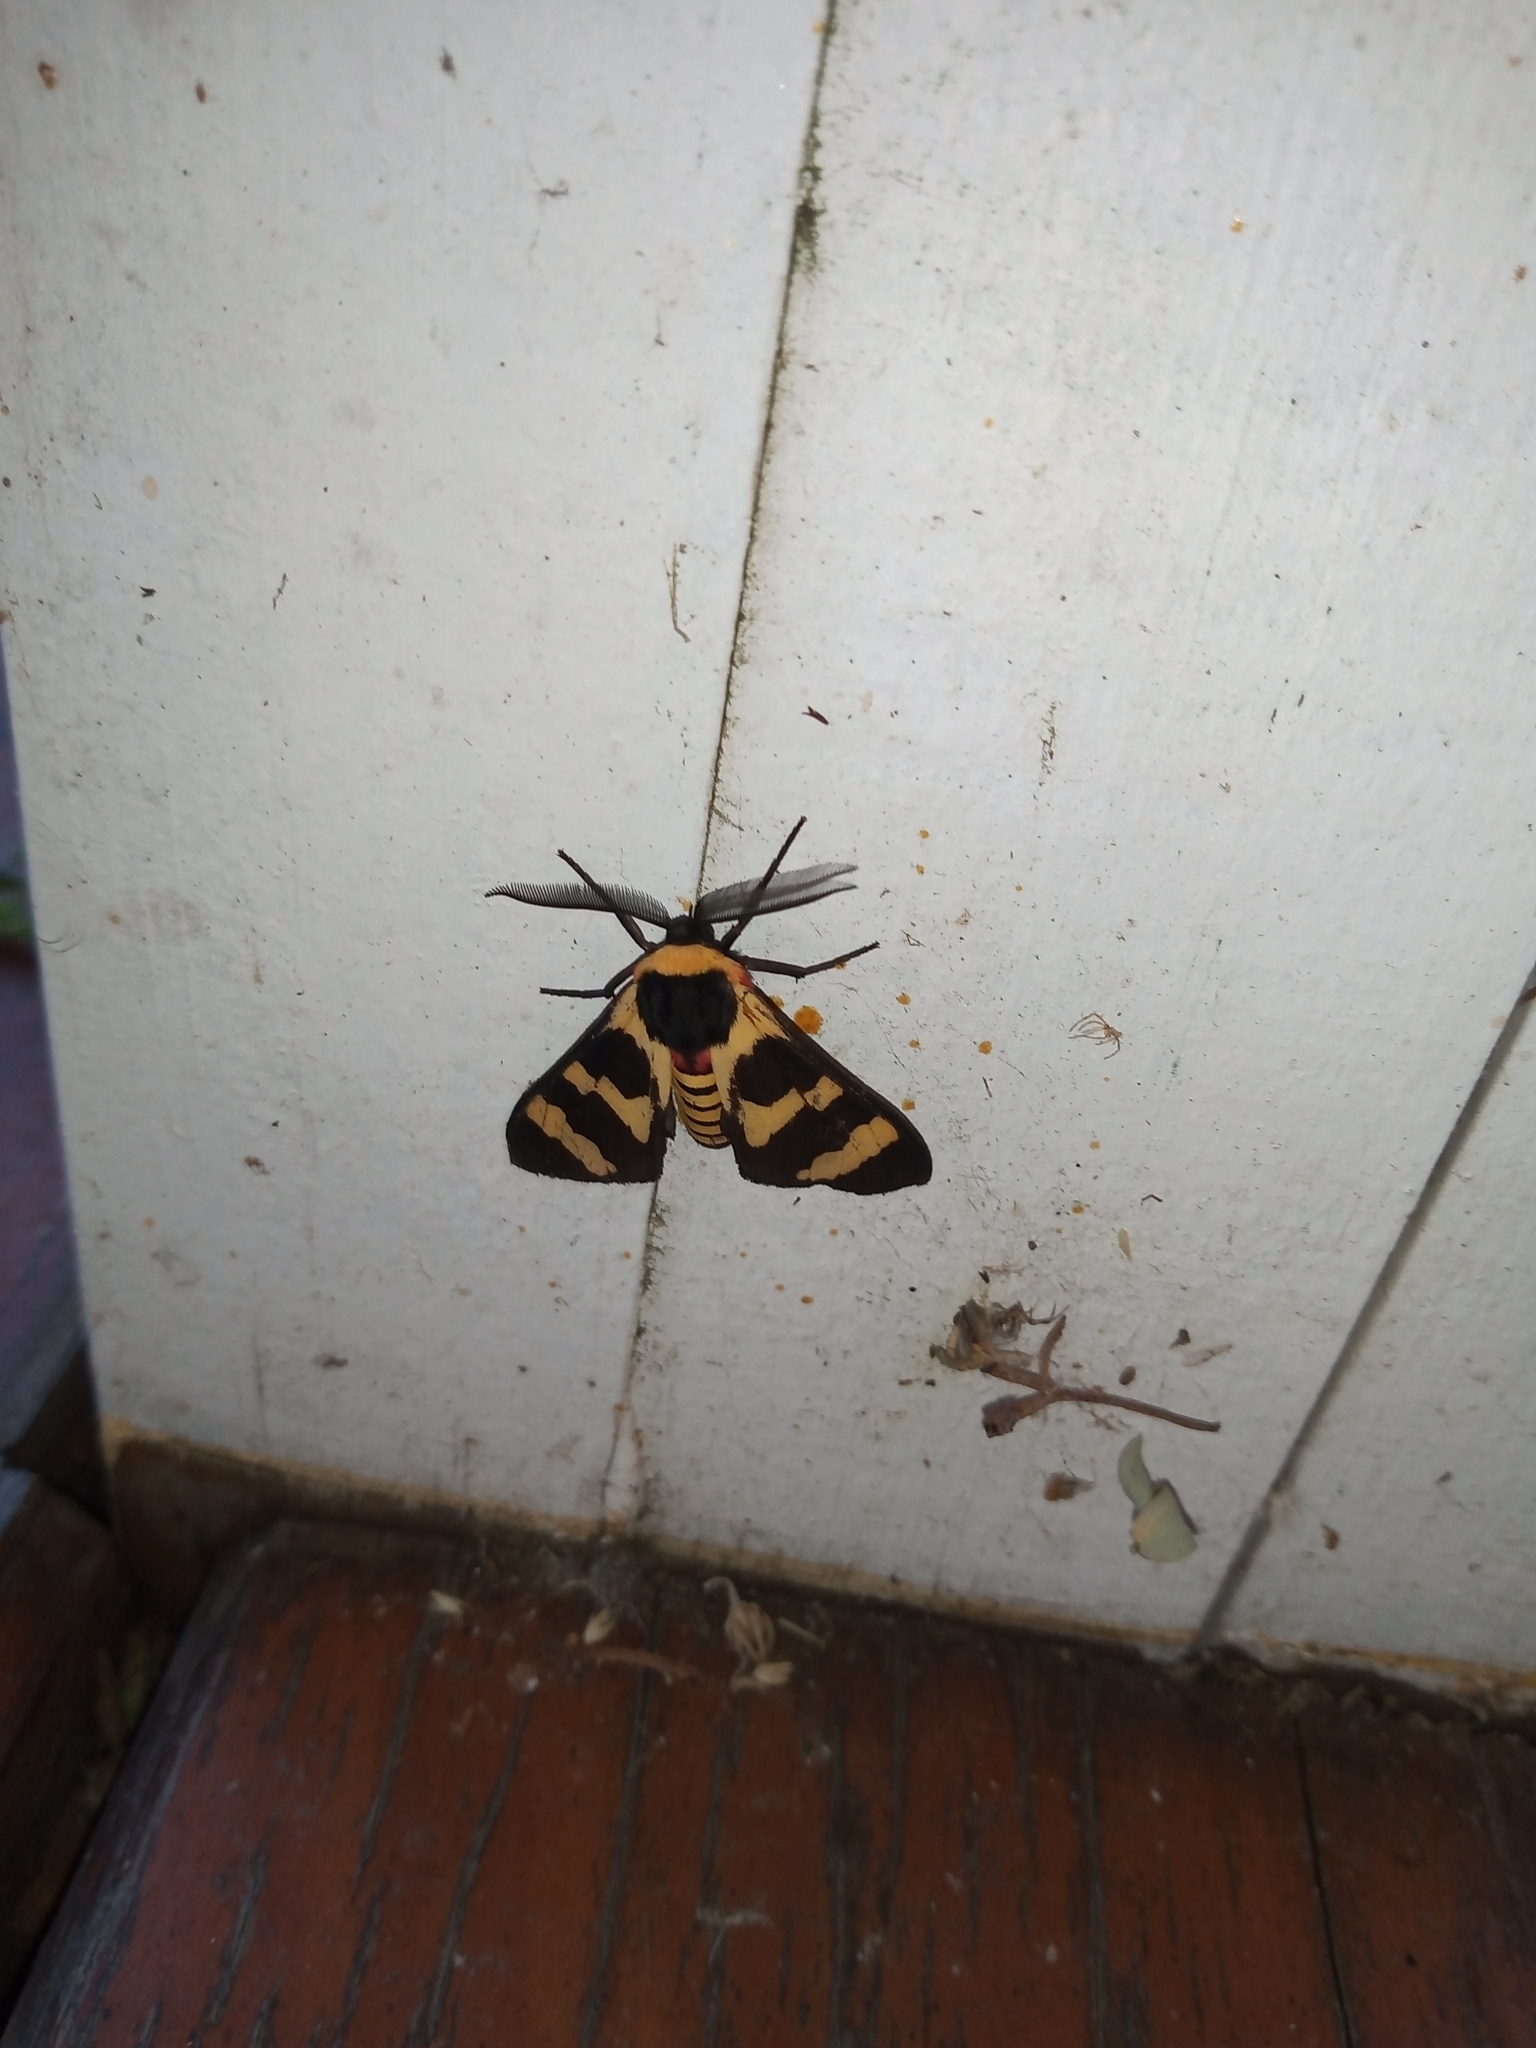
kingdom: Animalia
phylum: Arthropoda
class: Insecta
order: Lepidoptera
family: Erebidae
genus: Eurata
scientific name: Eurata hilaris
